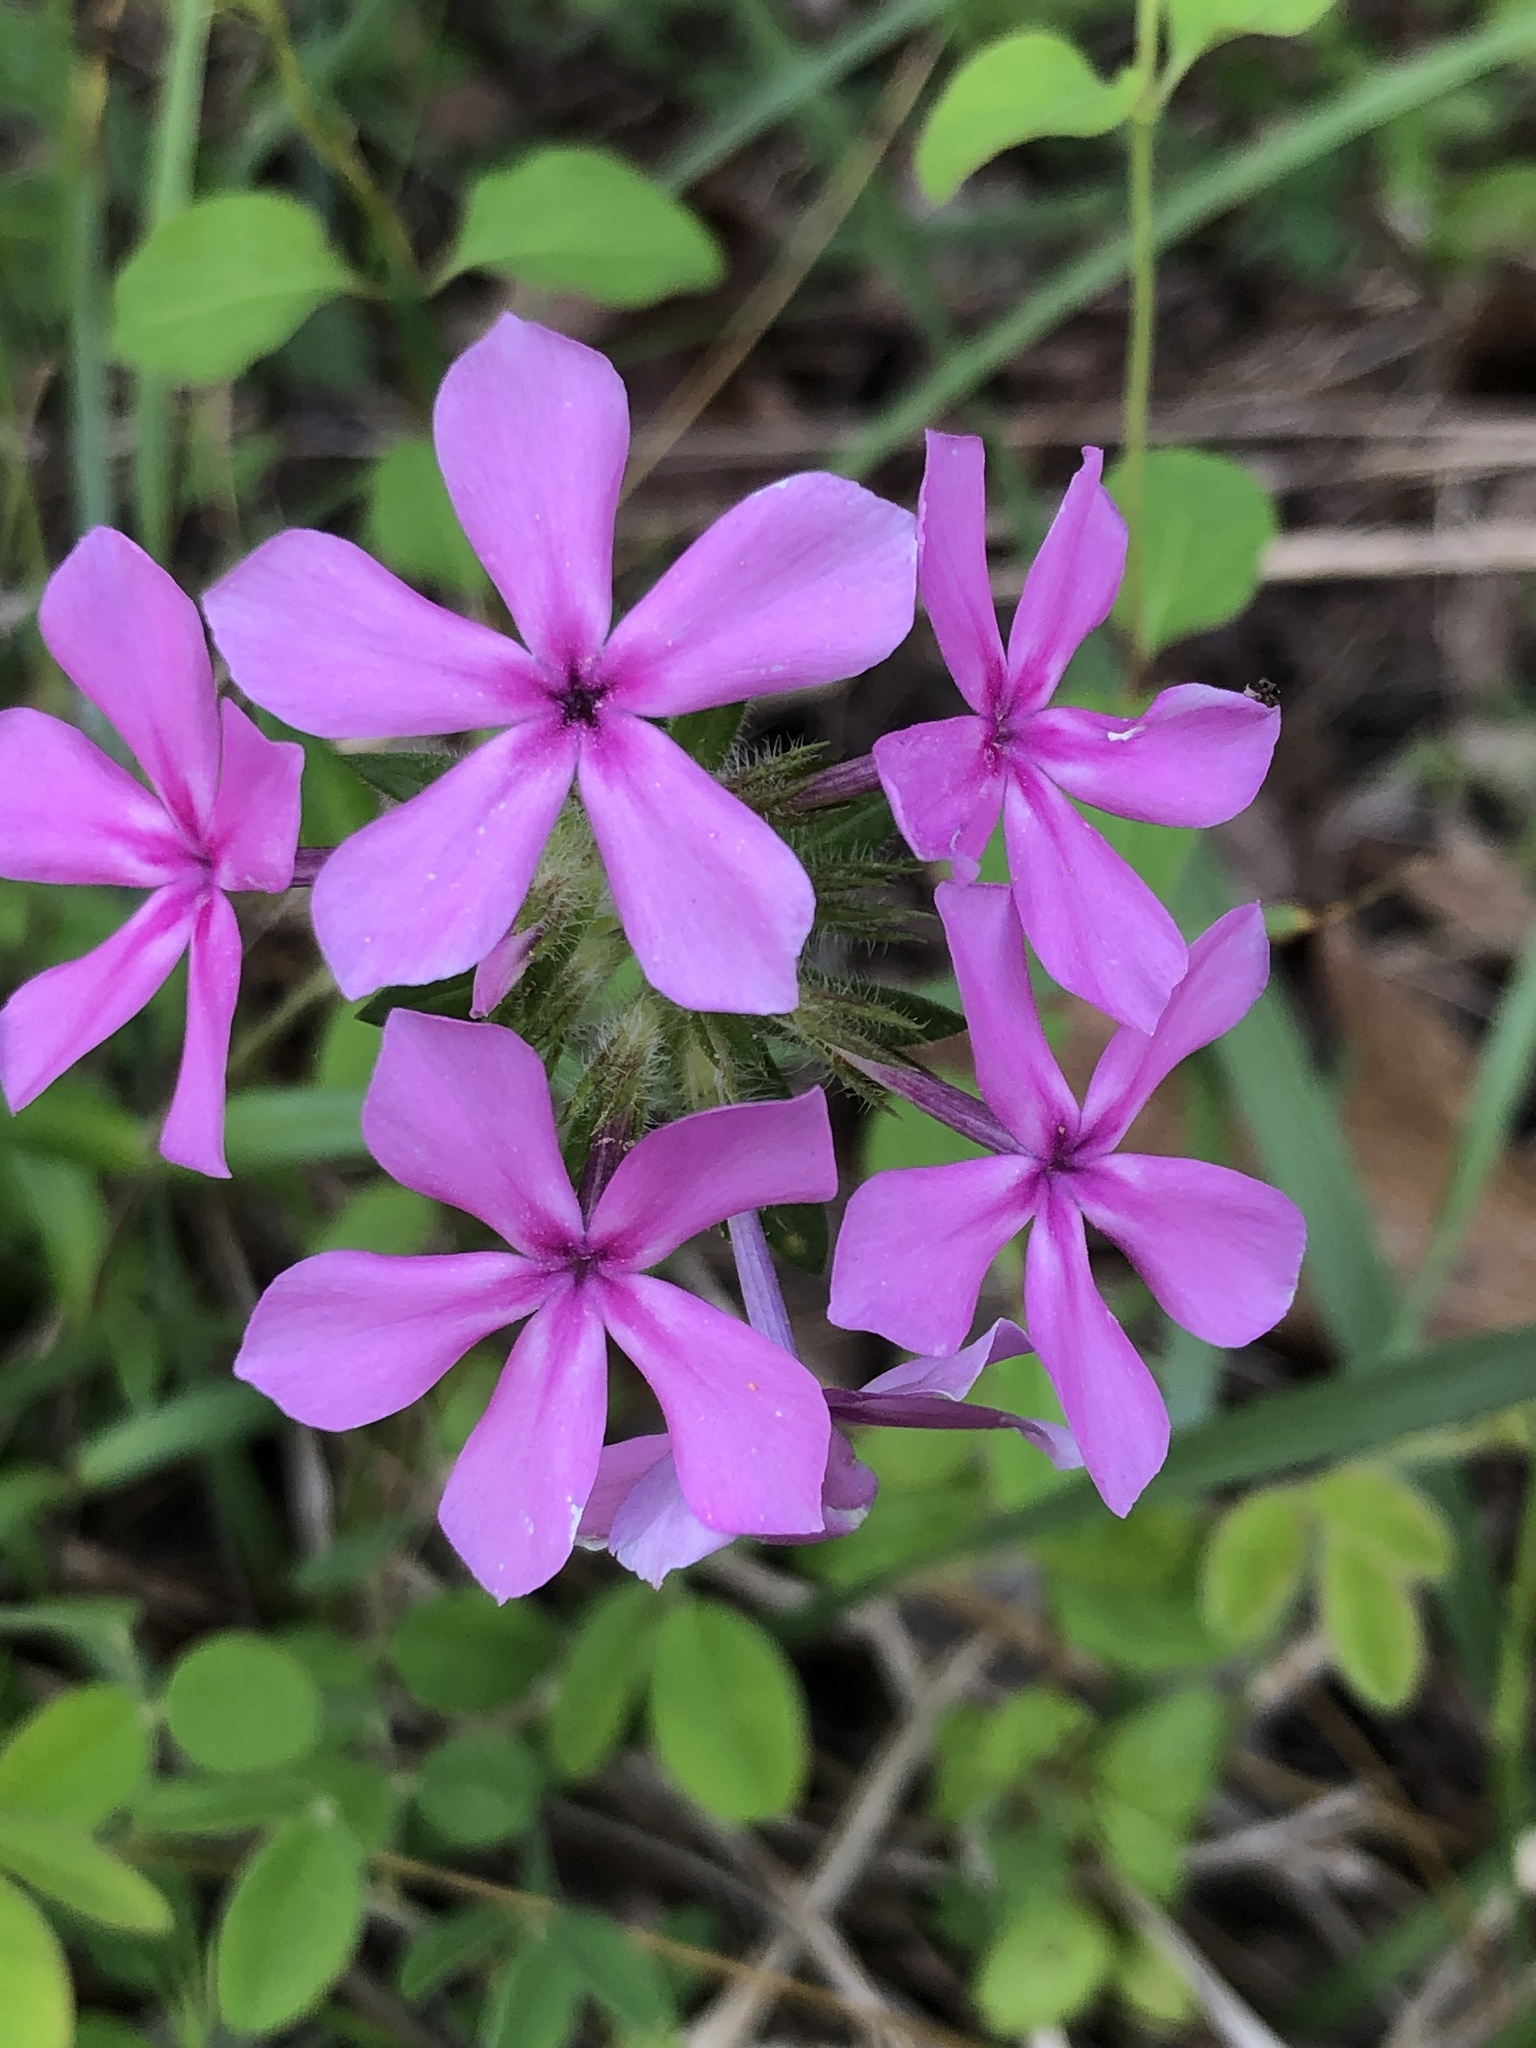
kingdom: Plantae
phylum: Tracheophyta
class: Magnoliopsida
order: Ericales
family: Polemoniaceae
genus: Phlox
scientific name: Phlox amoena
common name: Hairy phlox
